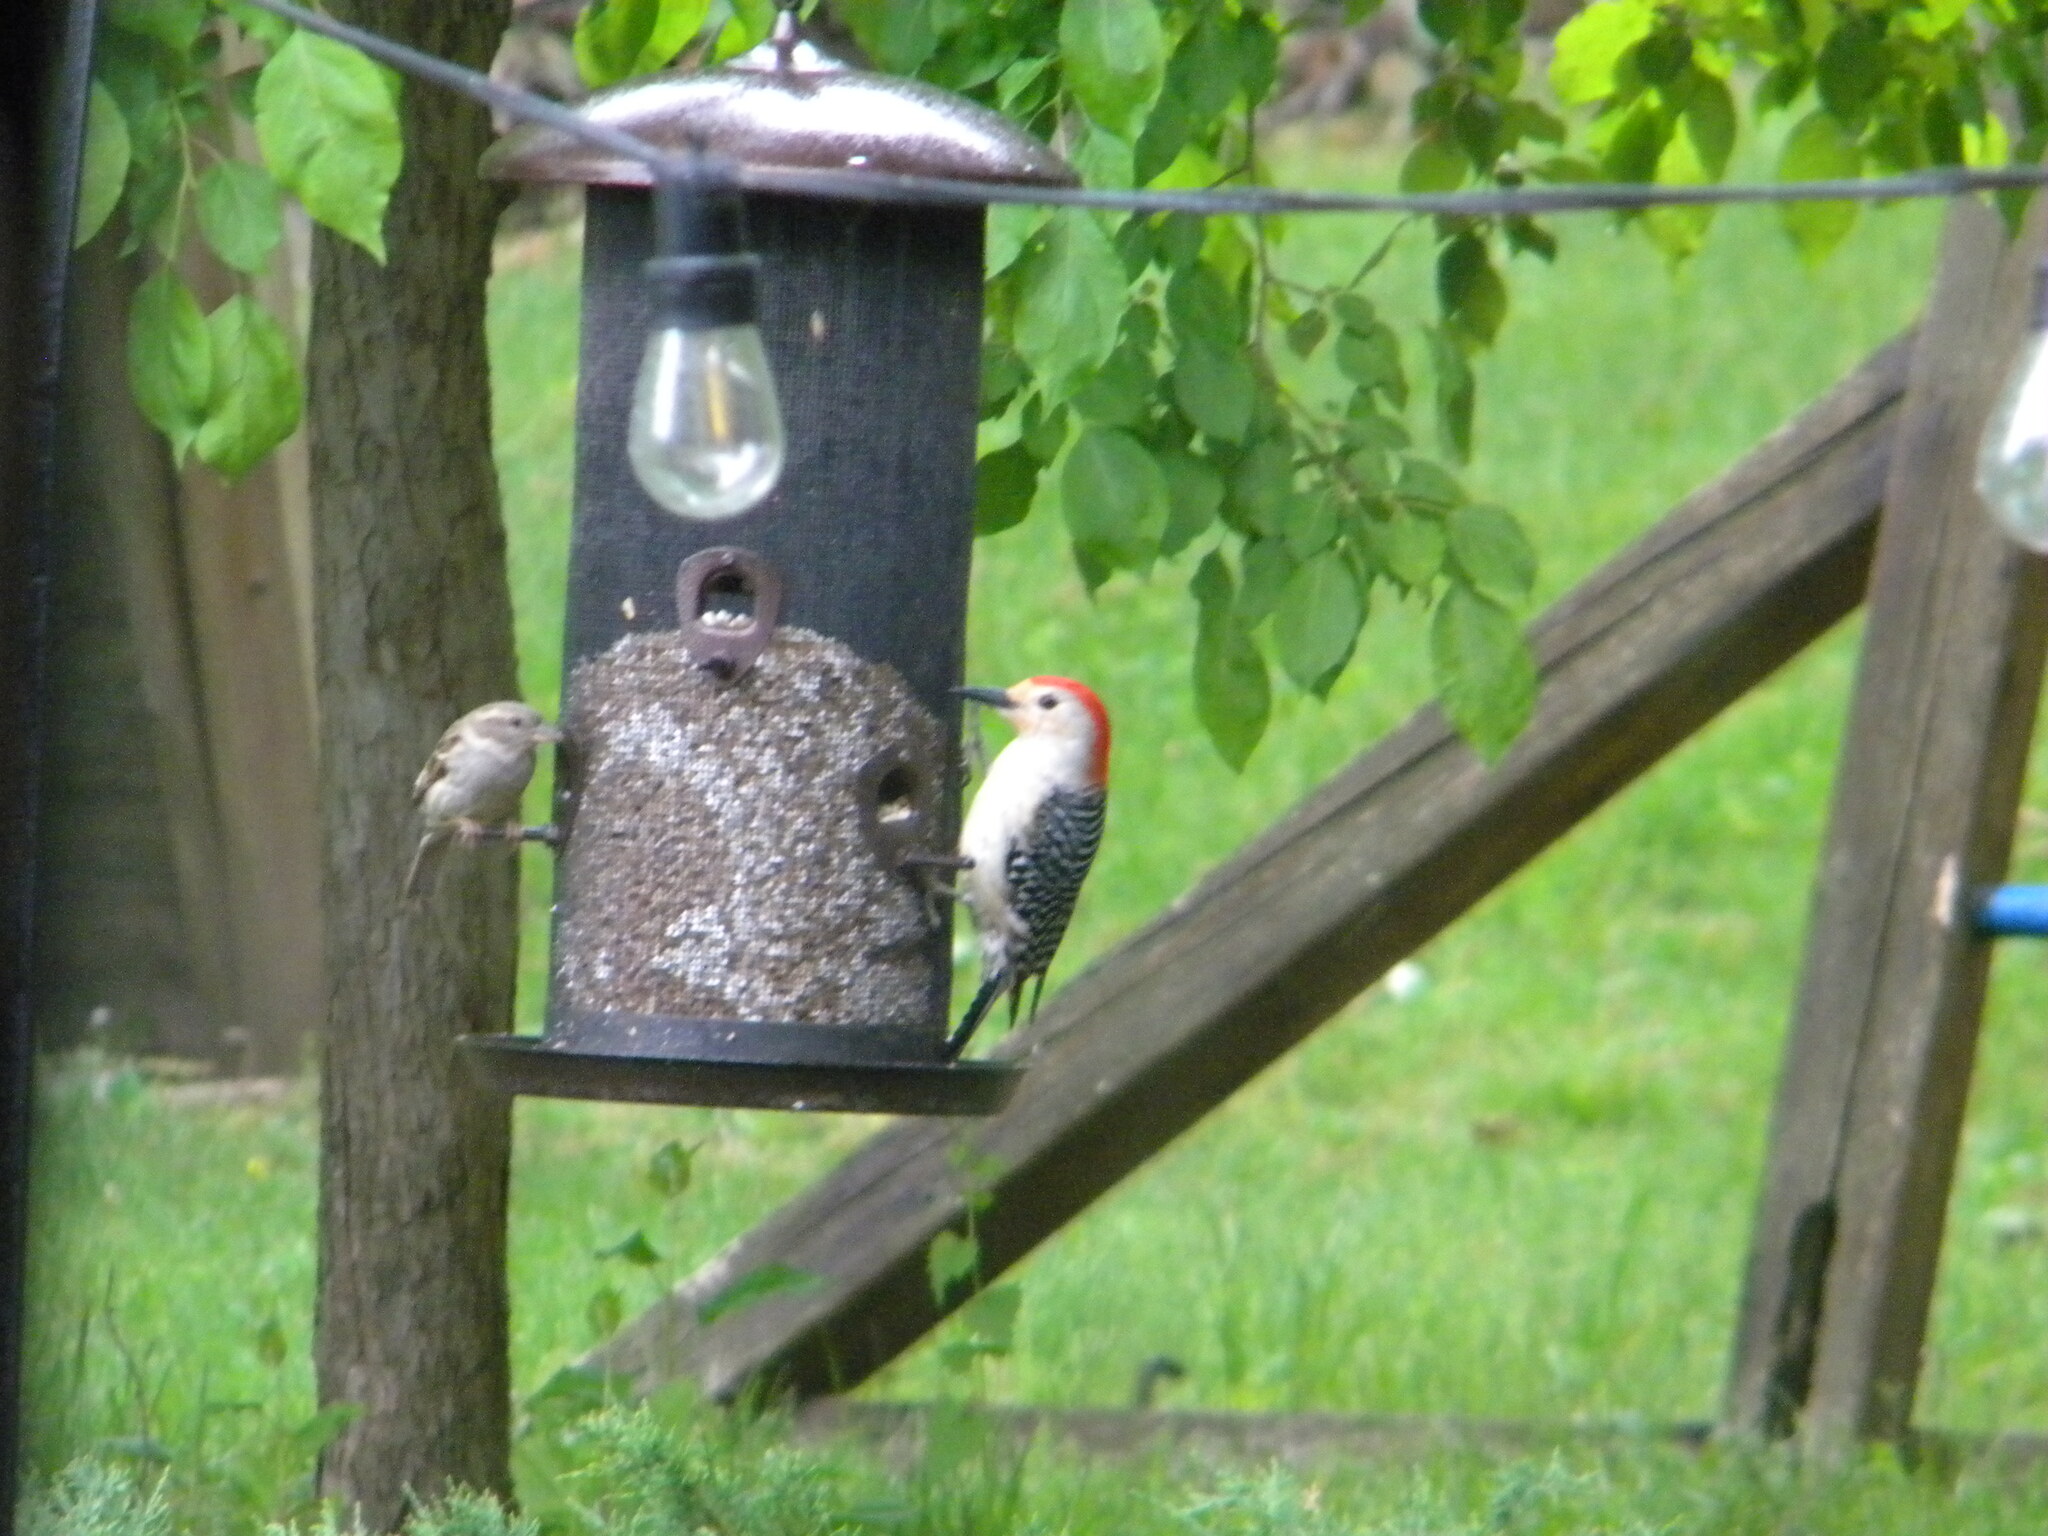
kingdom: Animalia
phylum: Chordata
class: Aves
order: Piciformes
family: Picidae
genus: Melanerpes
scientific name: Melanerpes carolinus
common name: Red-bellied woodpecker
